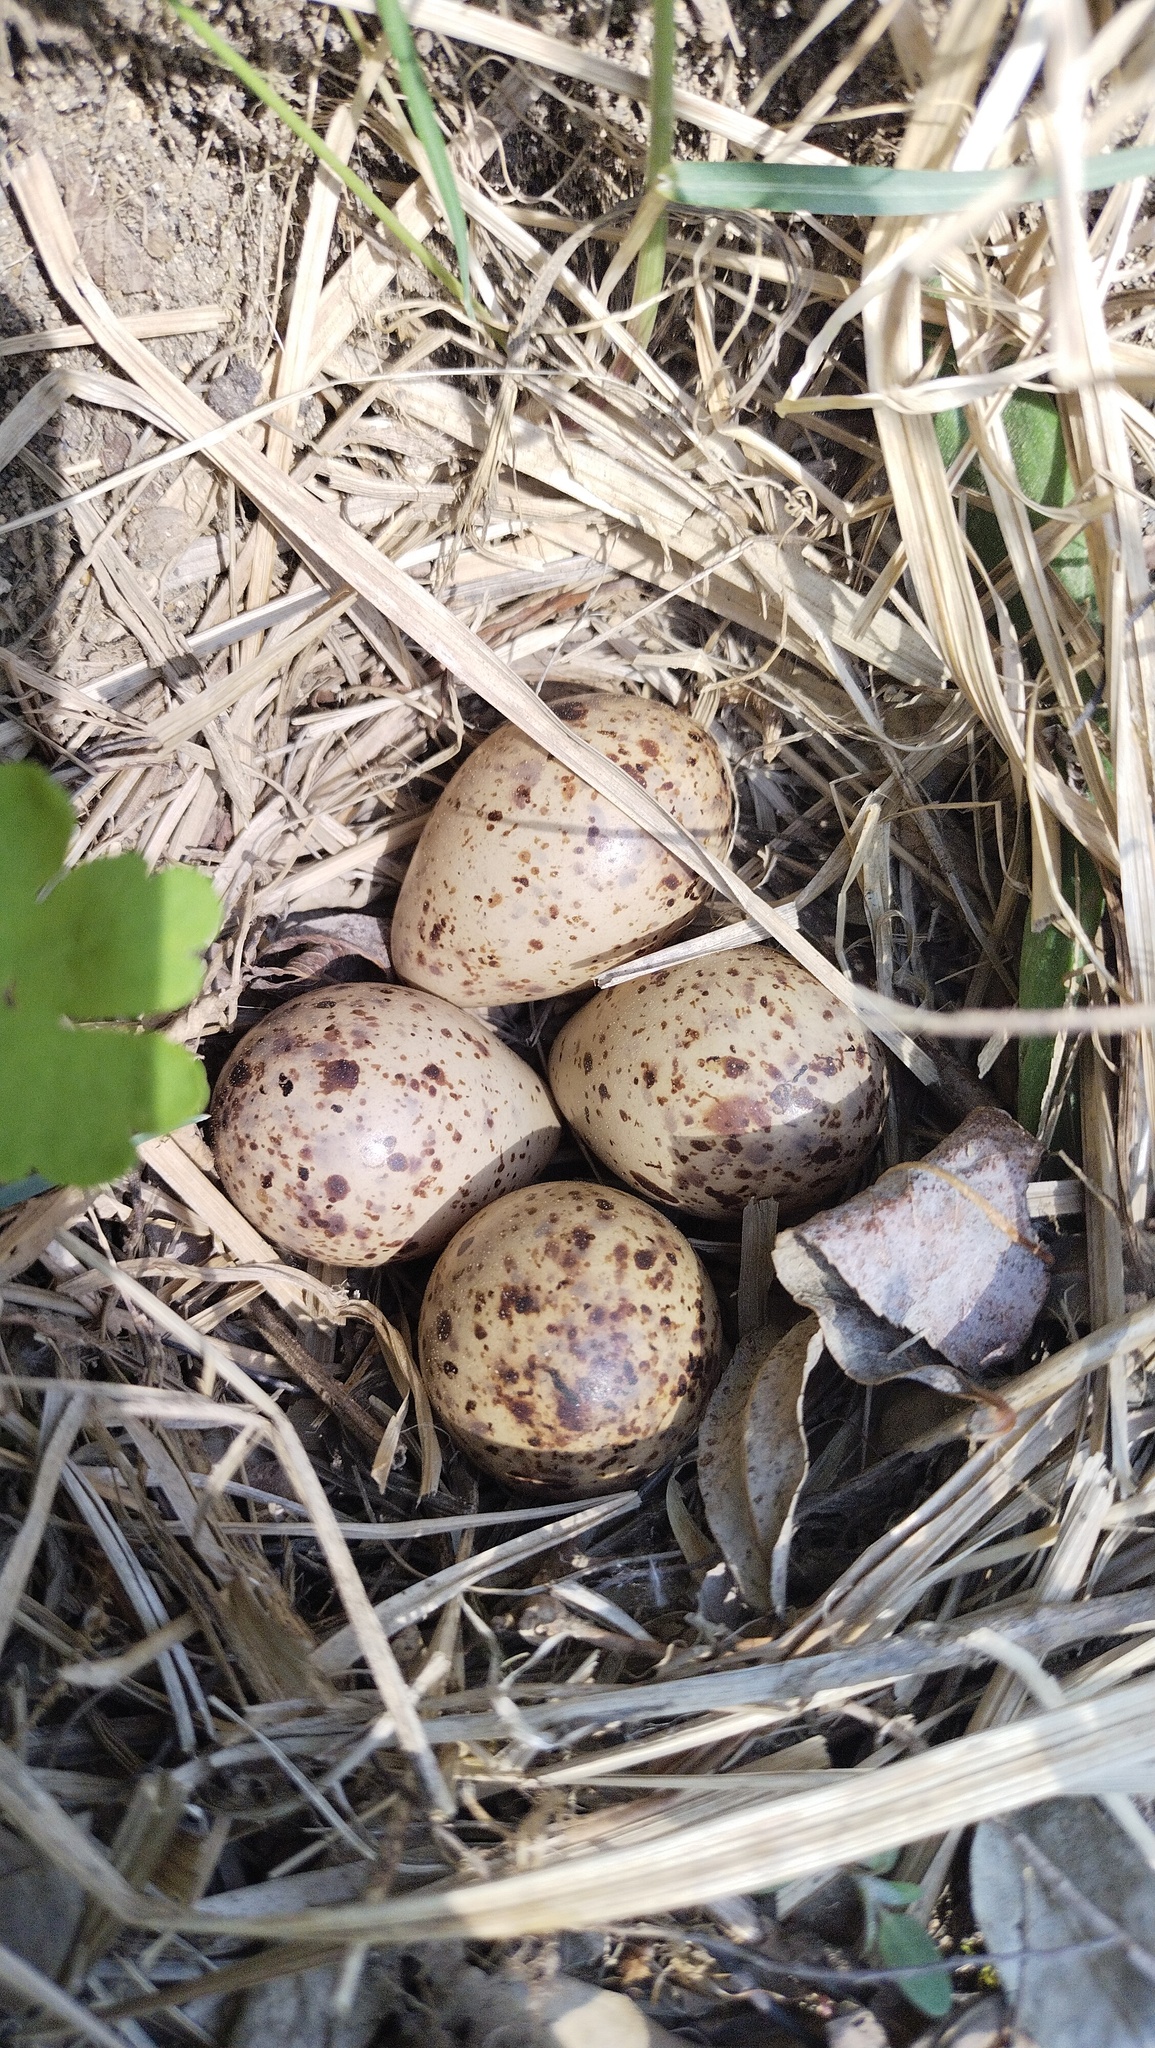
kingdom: Animalia
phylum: Chordata
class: Aves
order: Charadriiformes
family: Scolopacidae
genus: Actitis
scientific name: Actitis hypoleucos
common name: Common sandpiper
